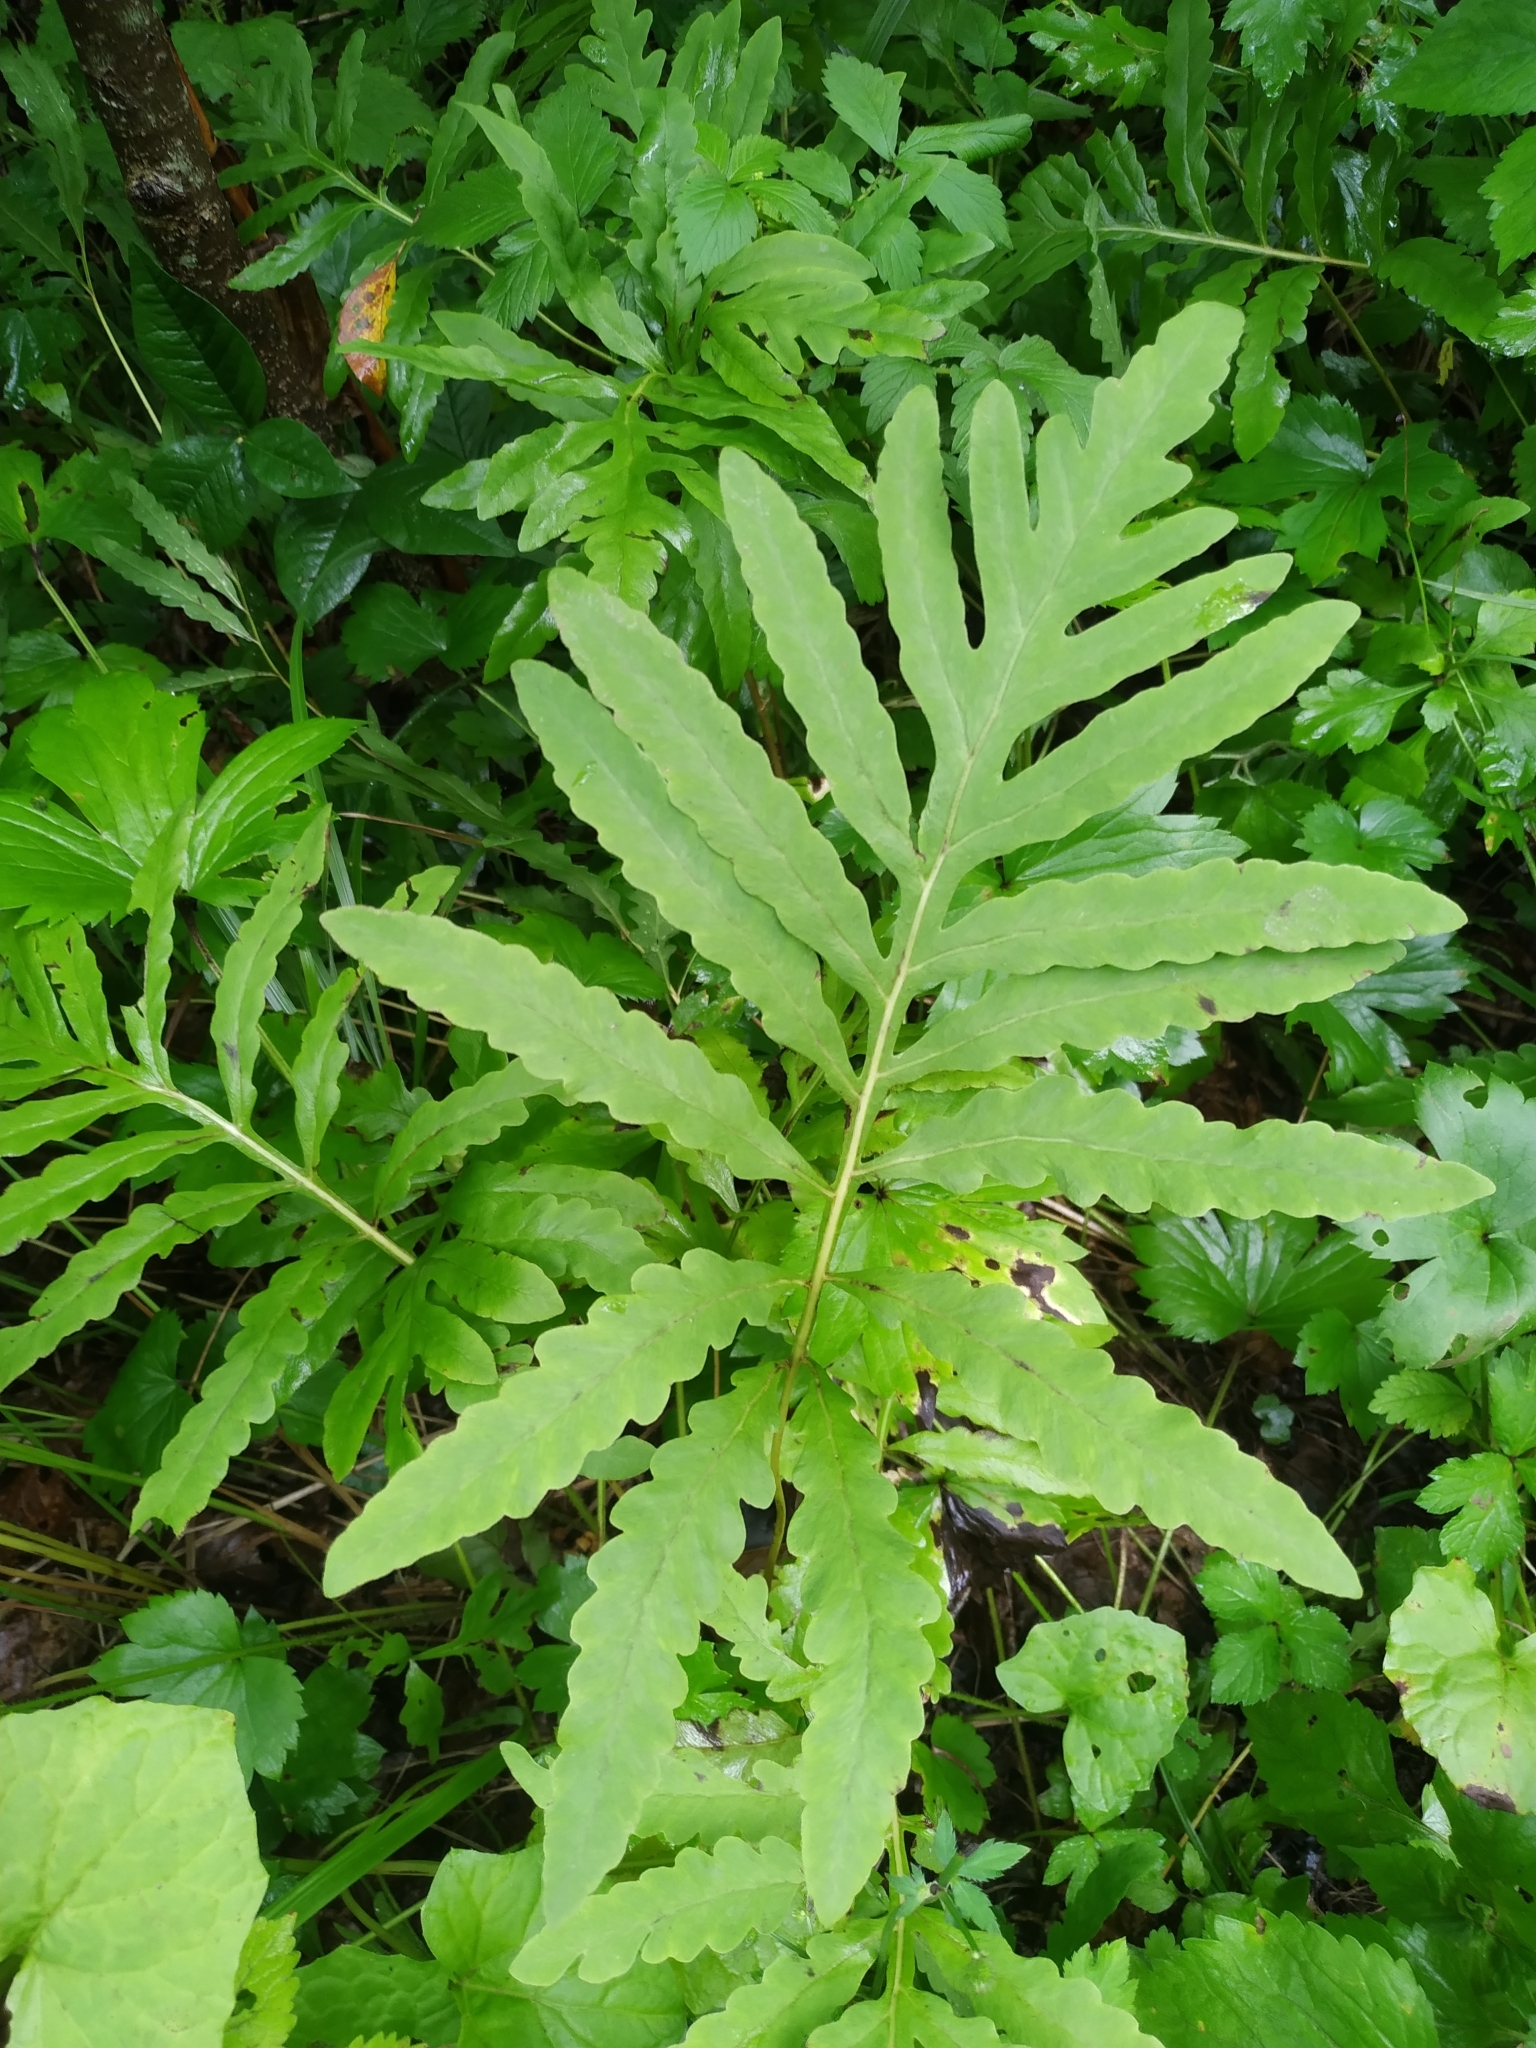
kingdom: Plantae
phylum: Tracheophyta
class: Polypodiopsida
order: Polypodiales
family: Onocleaceae
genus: Onoclea
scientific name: Onoclea sensibilis
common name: Sensitive fern
